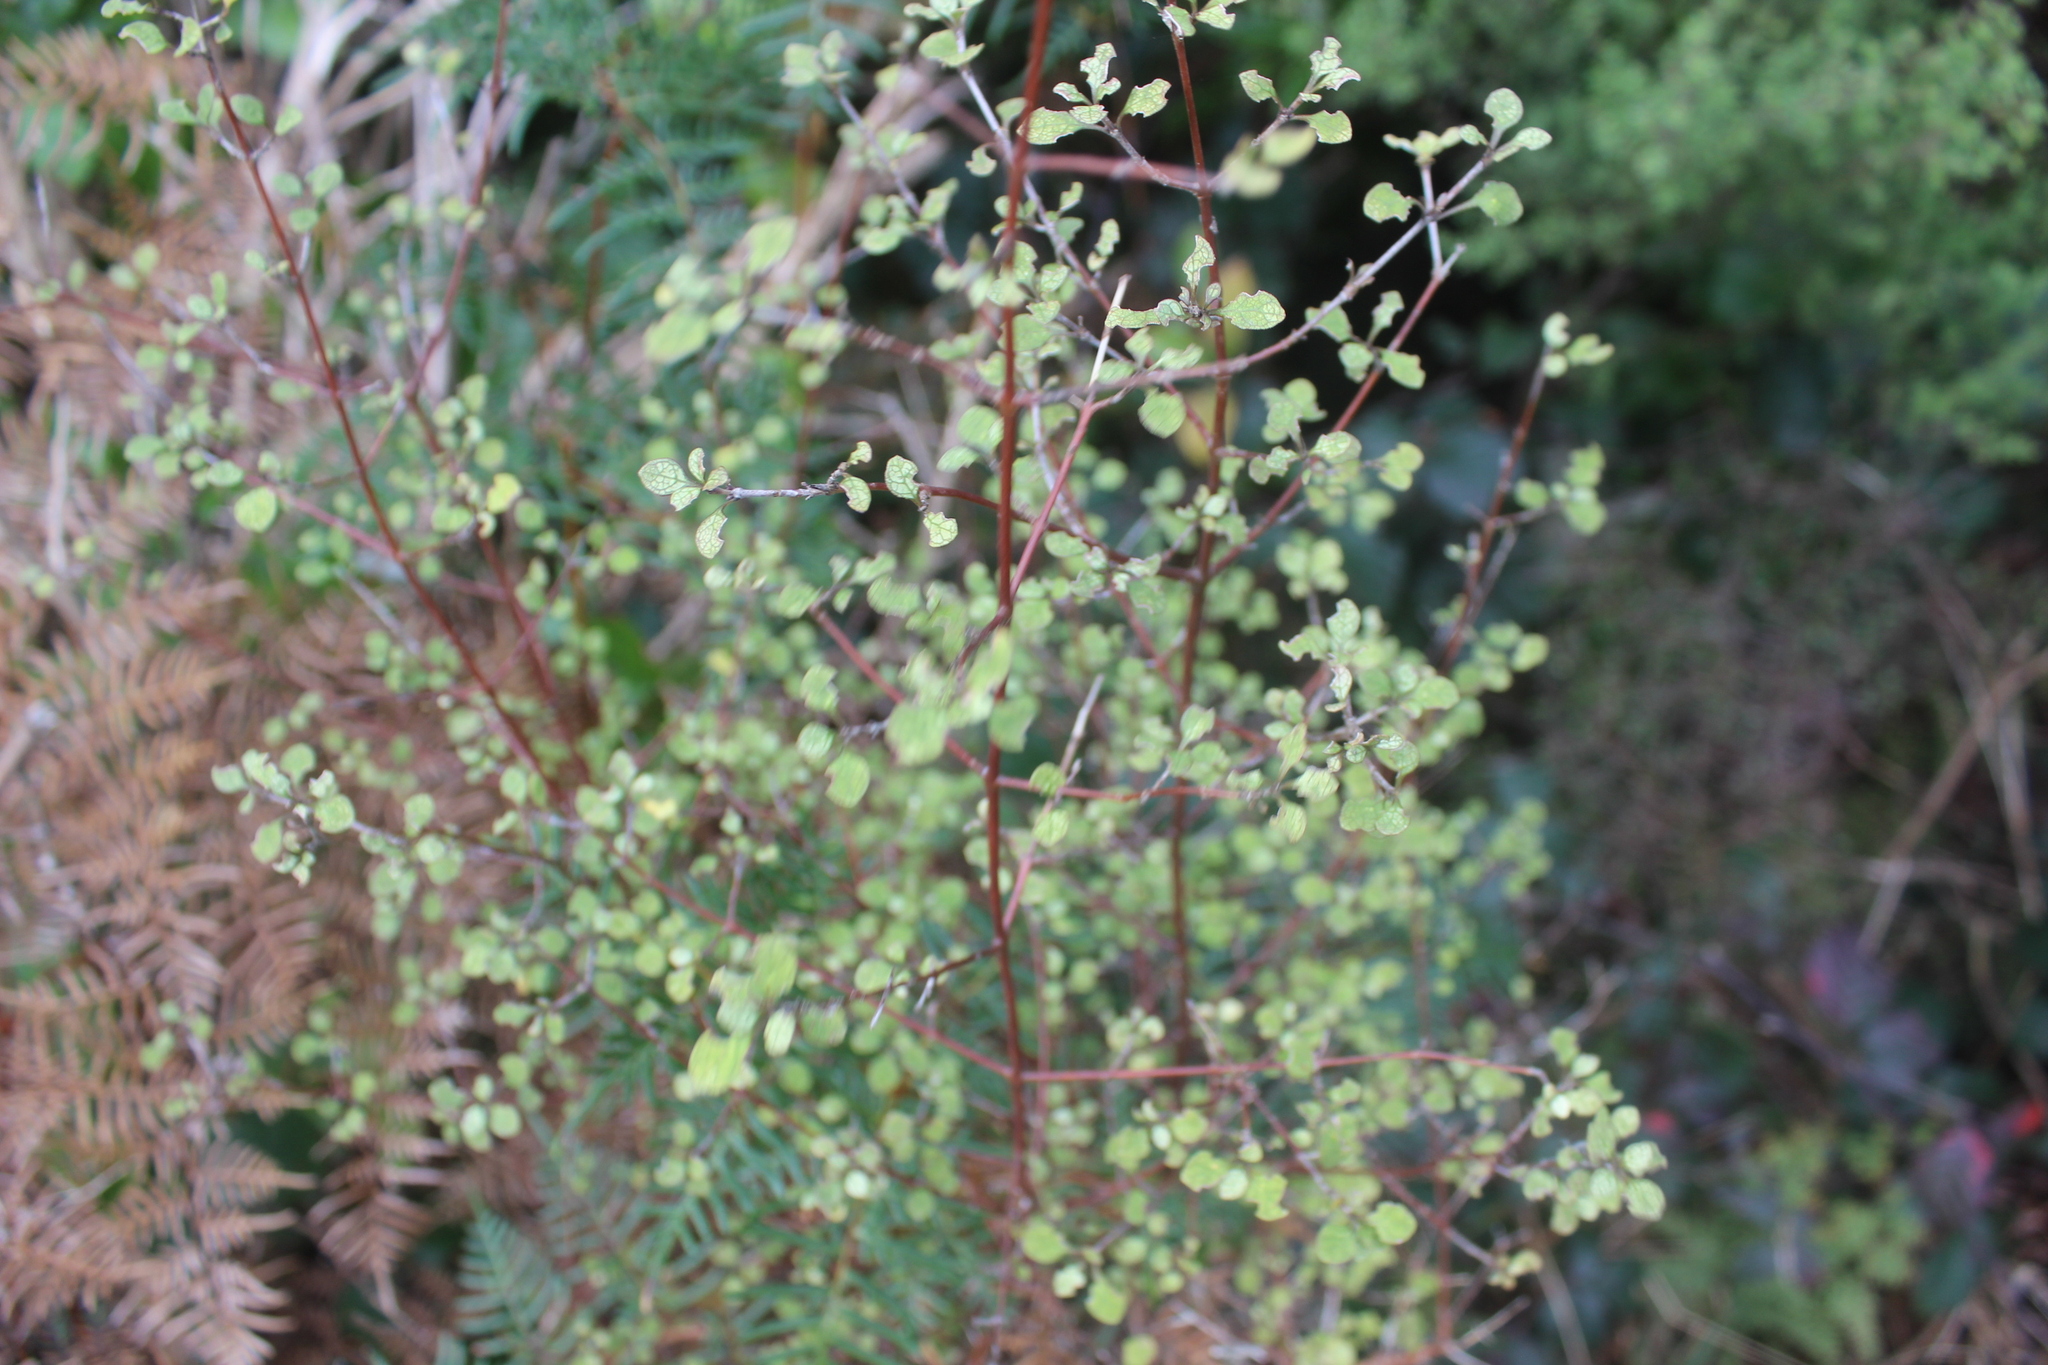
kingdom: Plantae
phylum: Tracheophyta
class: Magnoliopsida
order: Gentianales
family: Rubiaceae
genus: Coprosma
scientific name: Coprosma tenuicaulis
